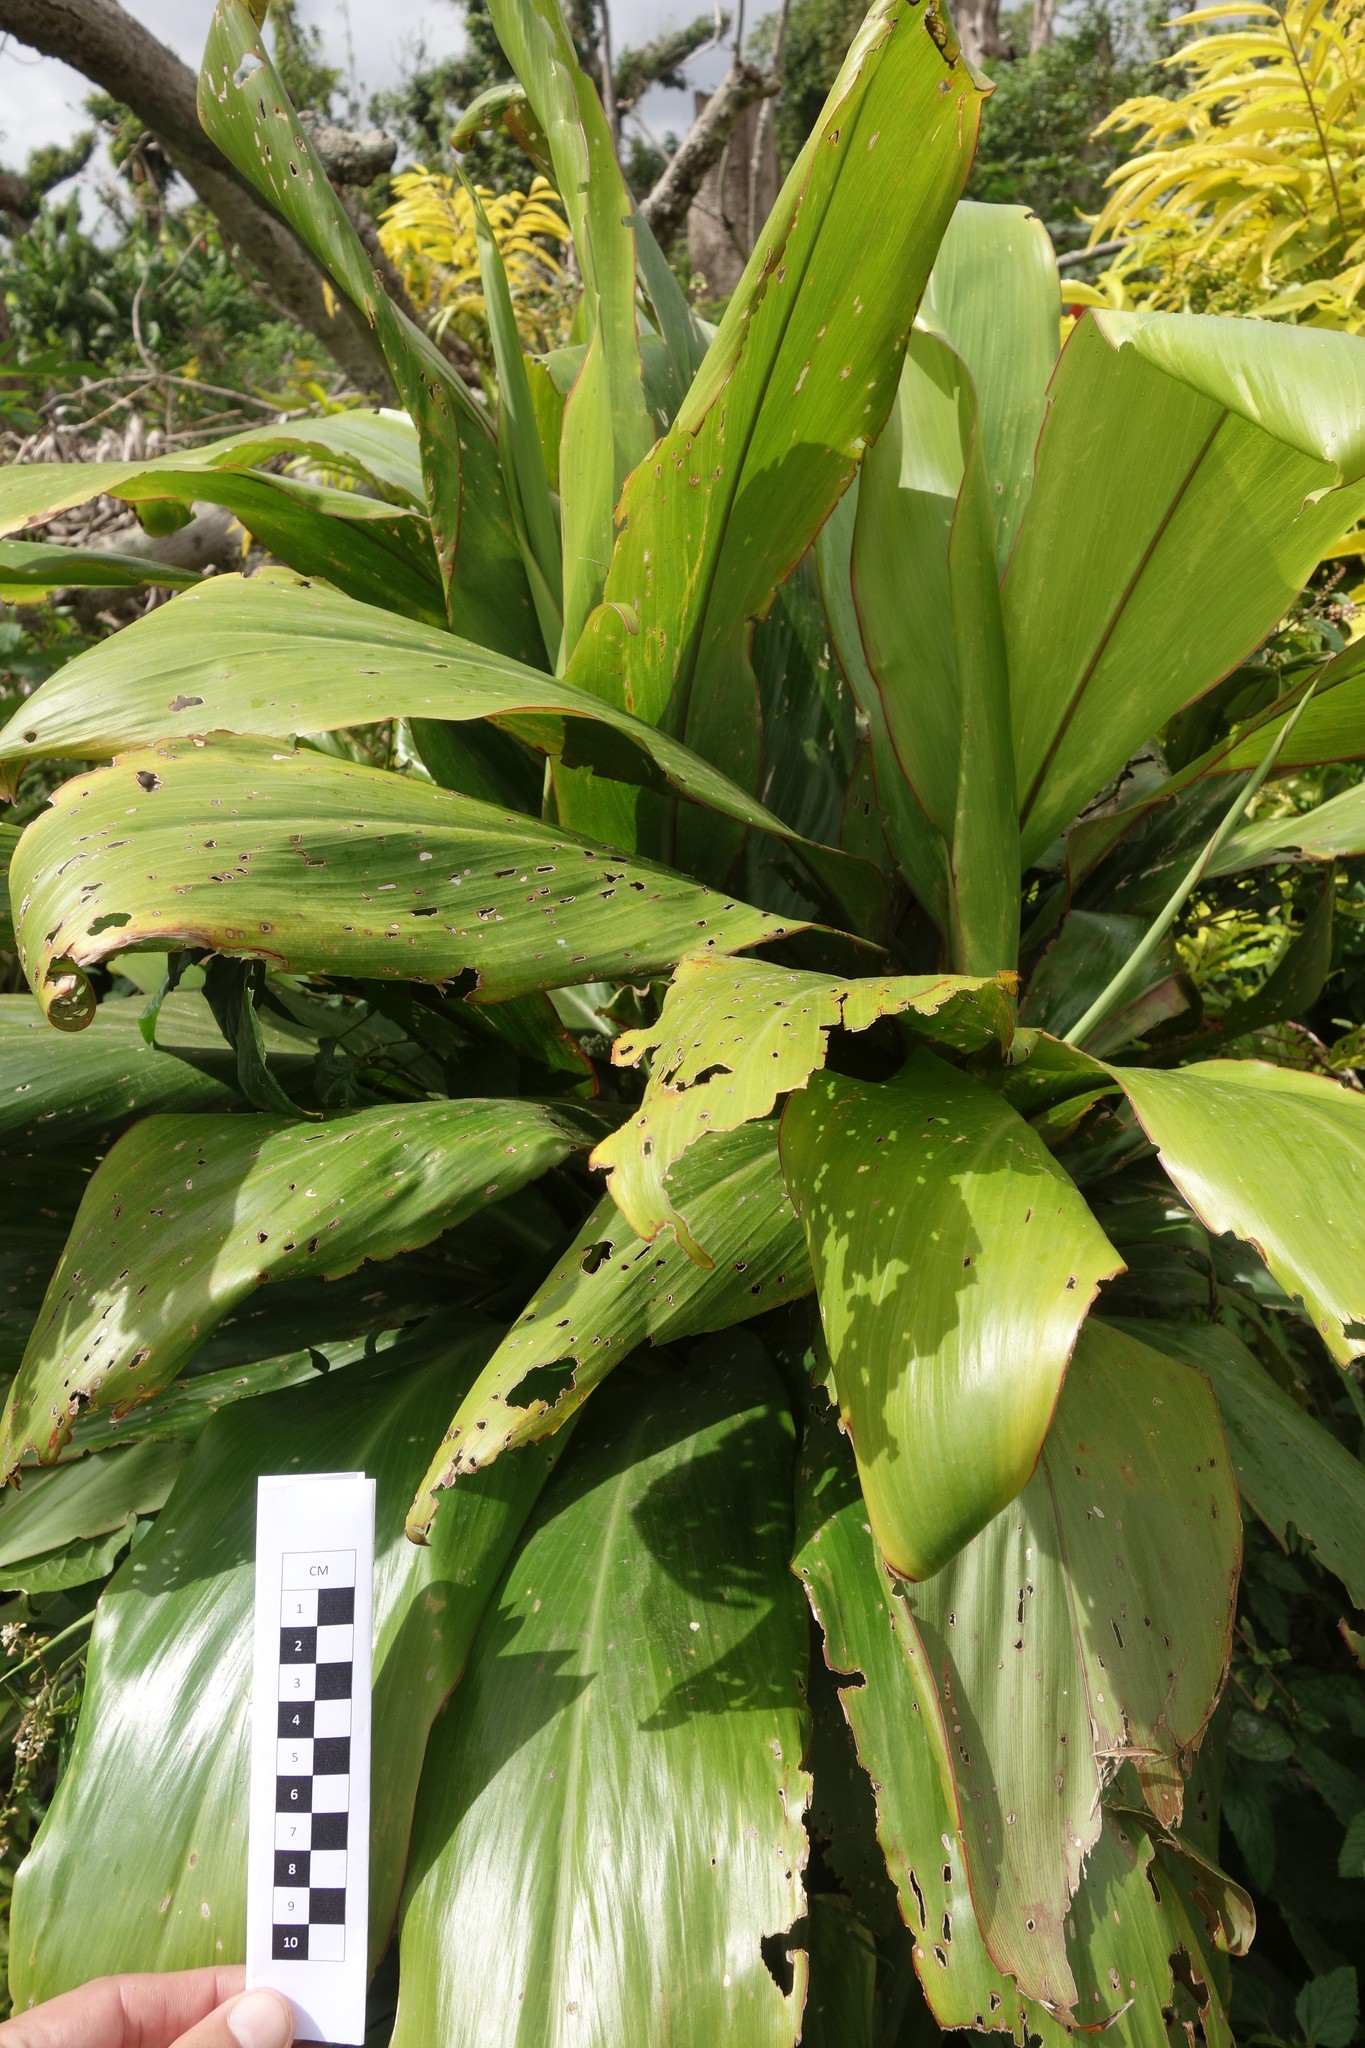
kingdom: Plantae
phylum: Tracheophyta
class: Liliopsida
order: Asparagales
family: Asparagaceae
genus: Cordyline
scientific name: Cordyline fruticosa
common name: Good-luck-plant
